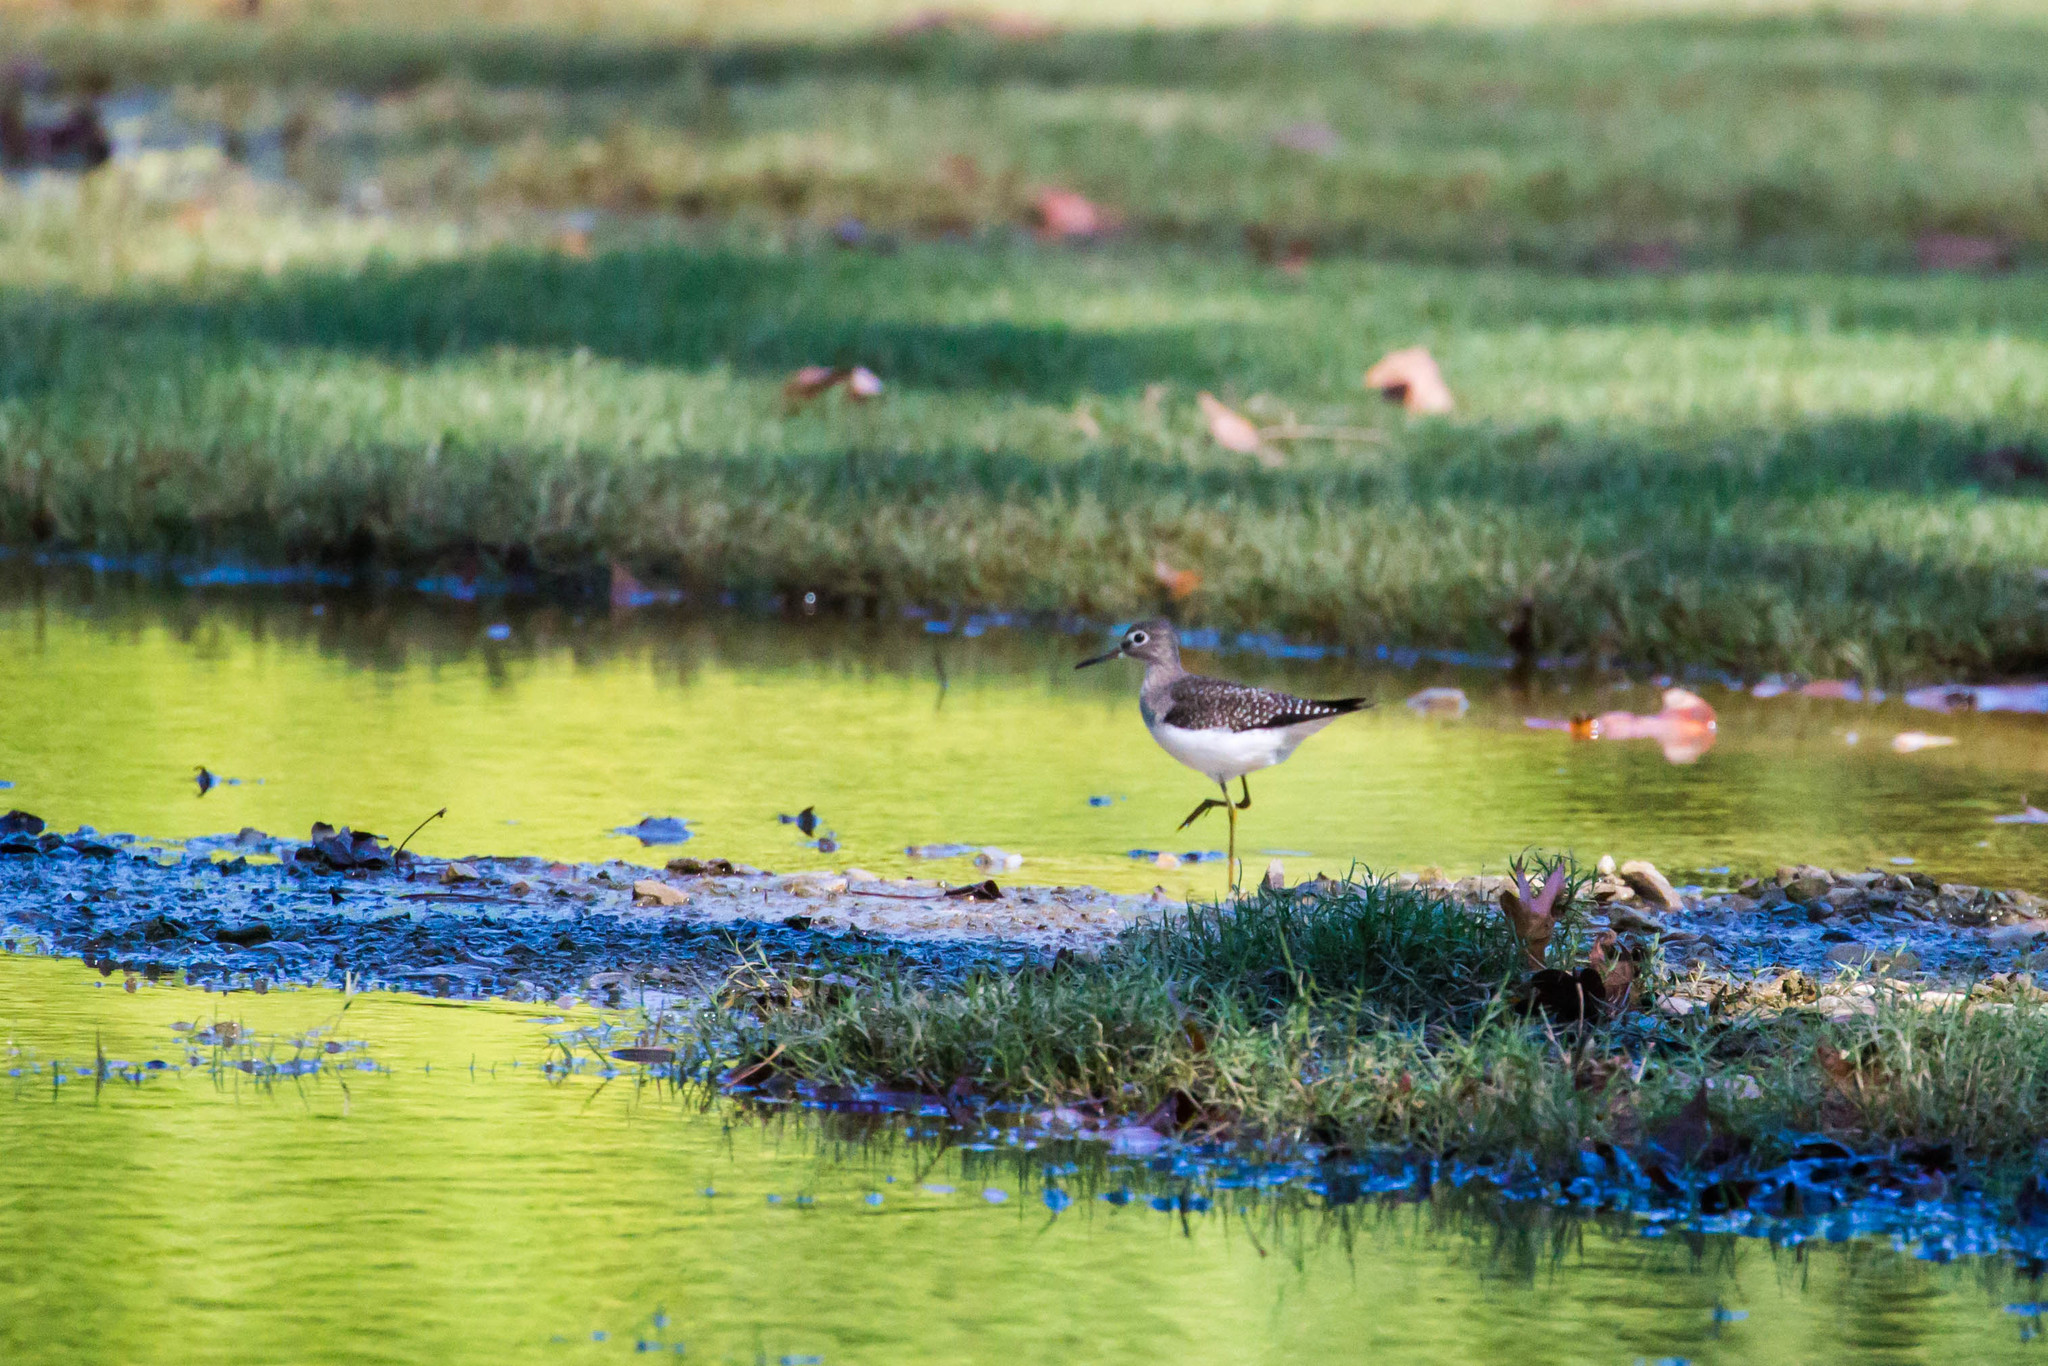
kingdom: Animalia
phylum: Chordata
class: Aves
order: Charadriiformes
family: Scolopacidae
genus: Tringa
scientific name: Tringa solitaria
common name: Solitary sandpiper
